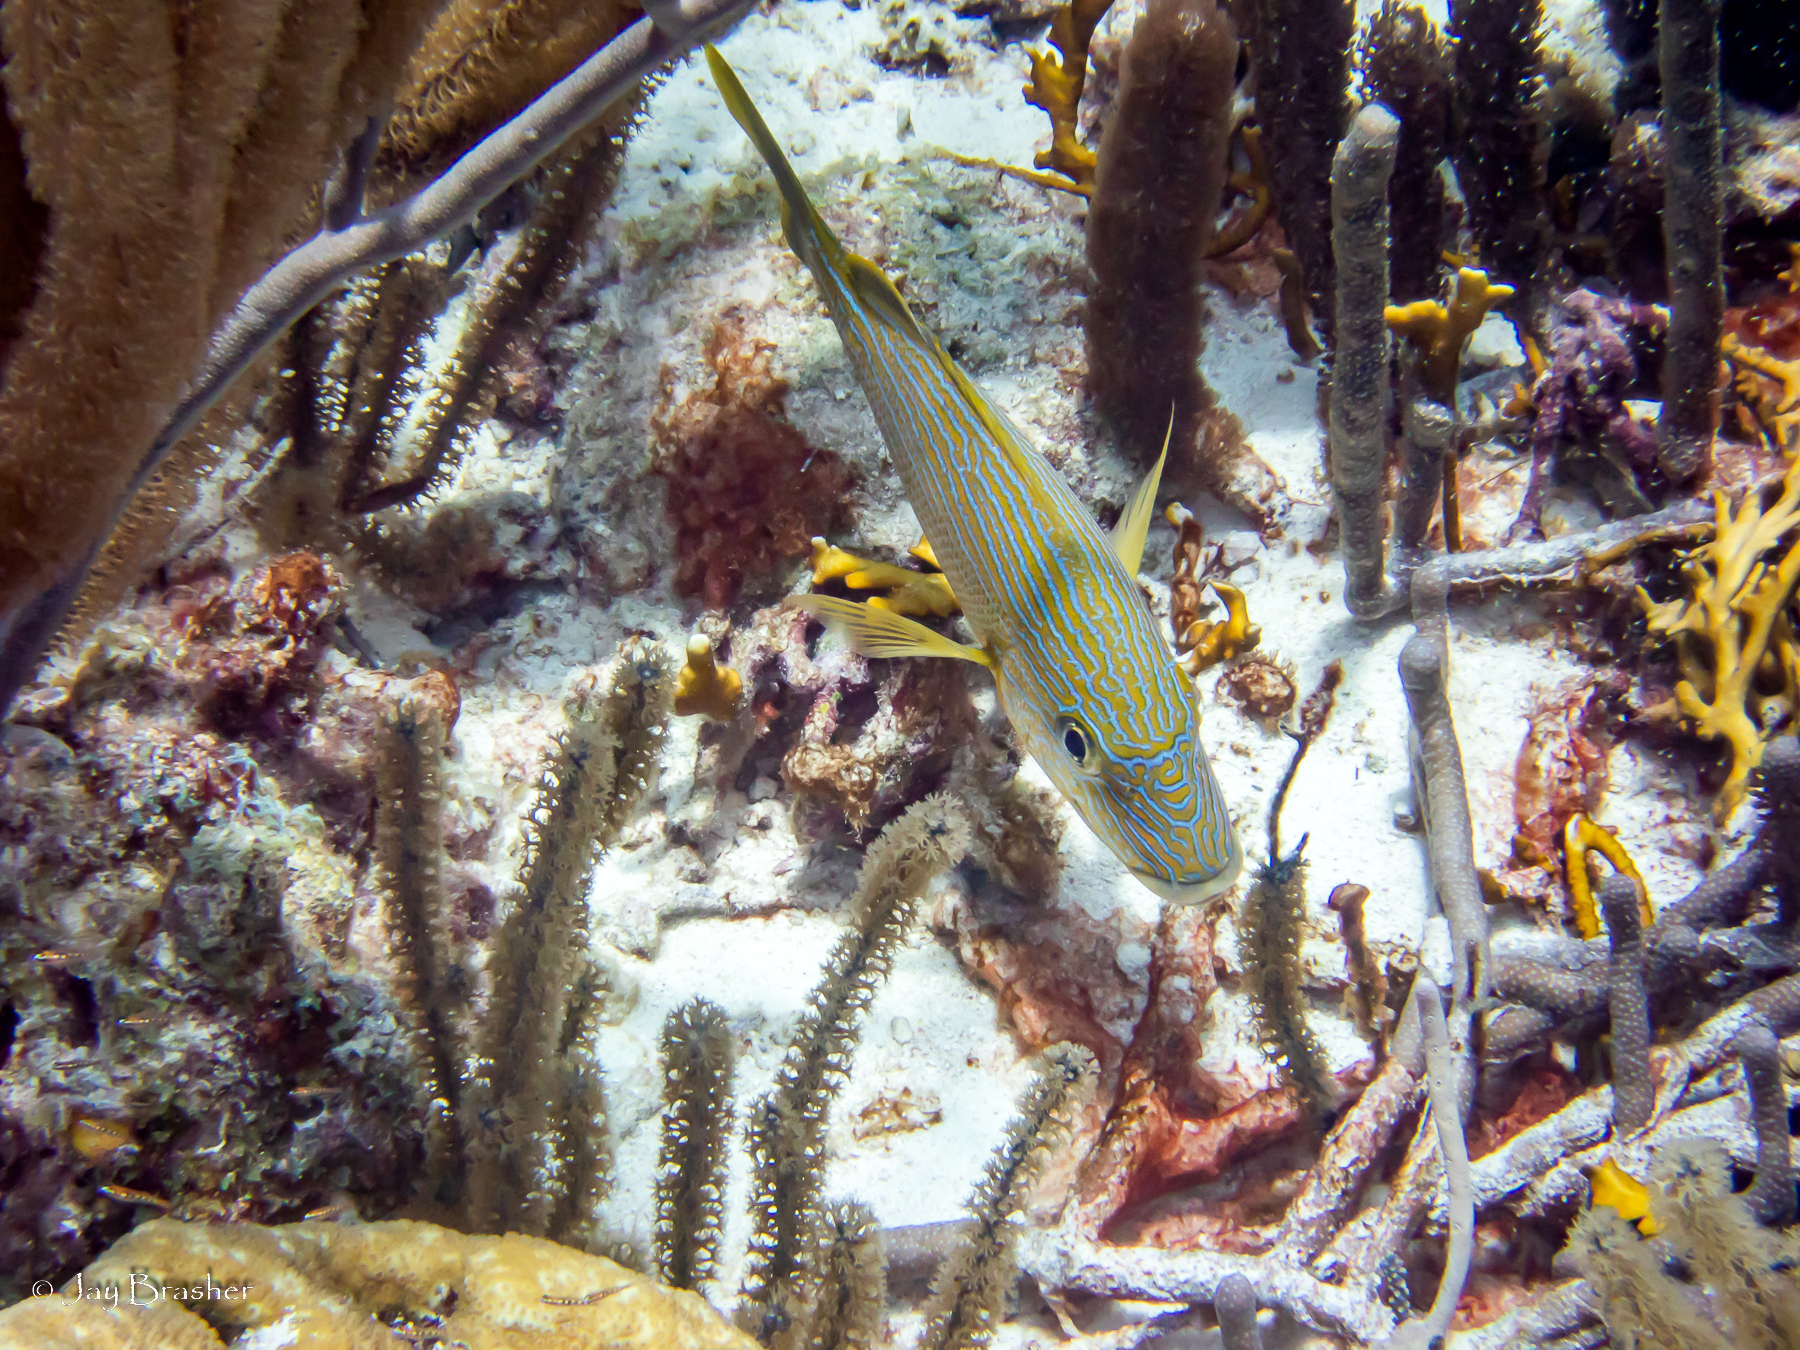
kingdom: Animalia
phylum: Chordata
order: Perciformes
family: Haemulidae
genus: Haemulon
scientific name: Haemulon sciurus
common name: Bluestriped grunt
